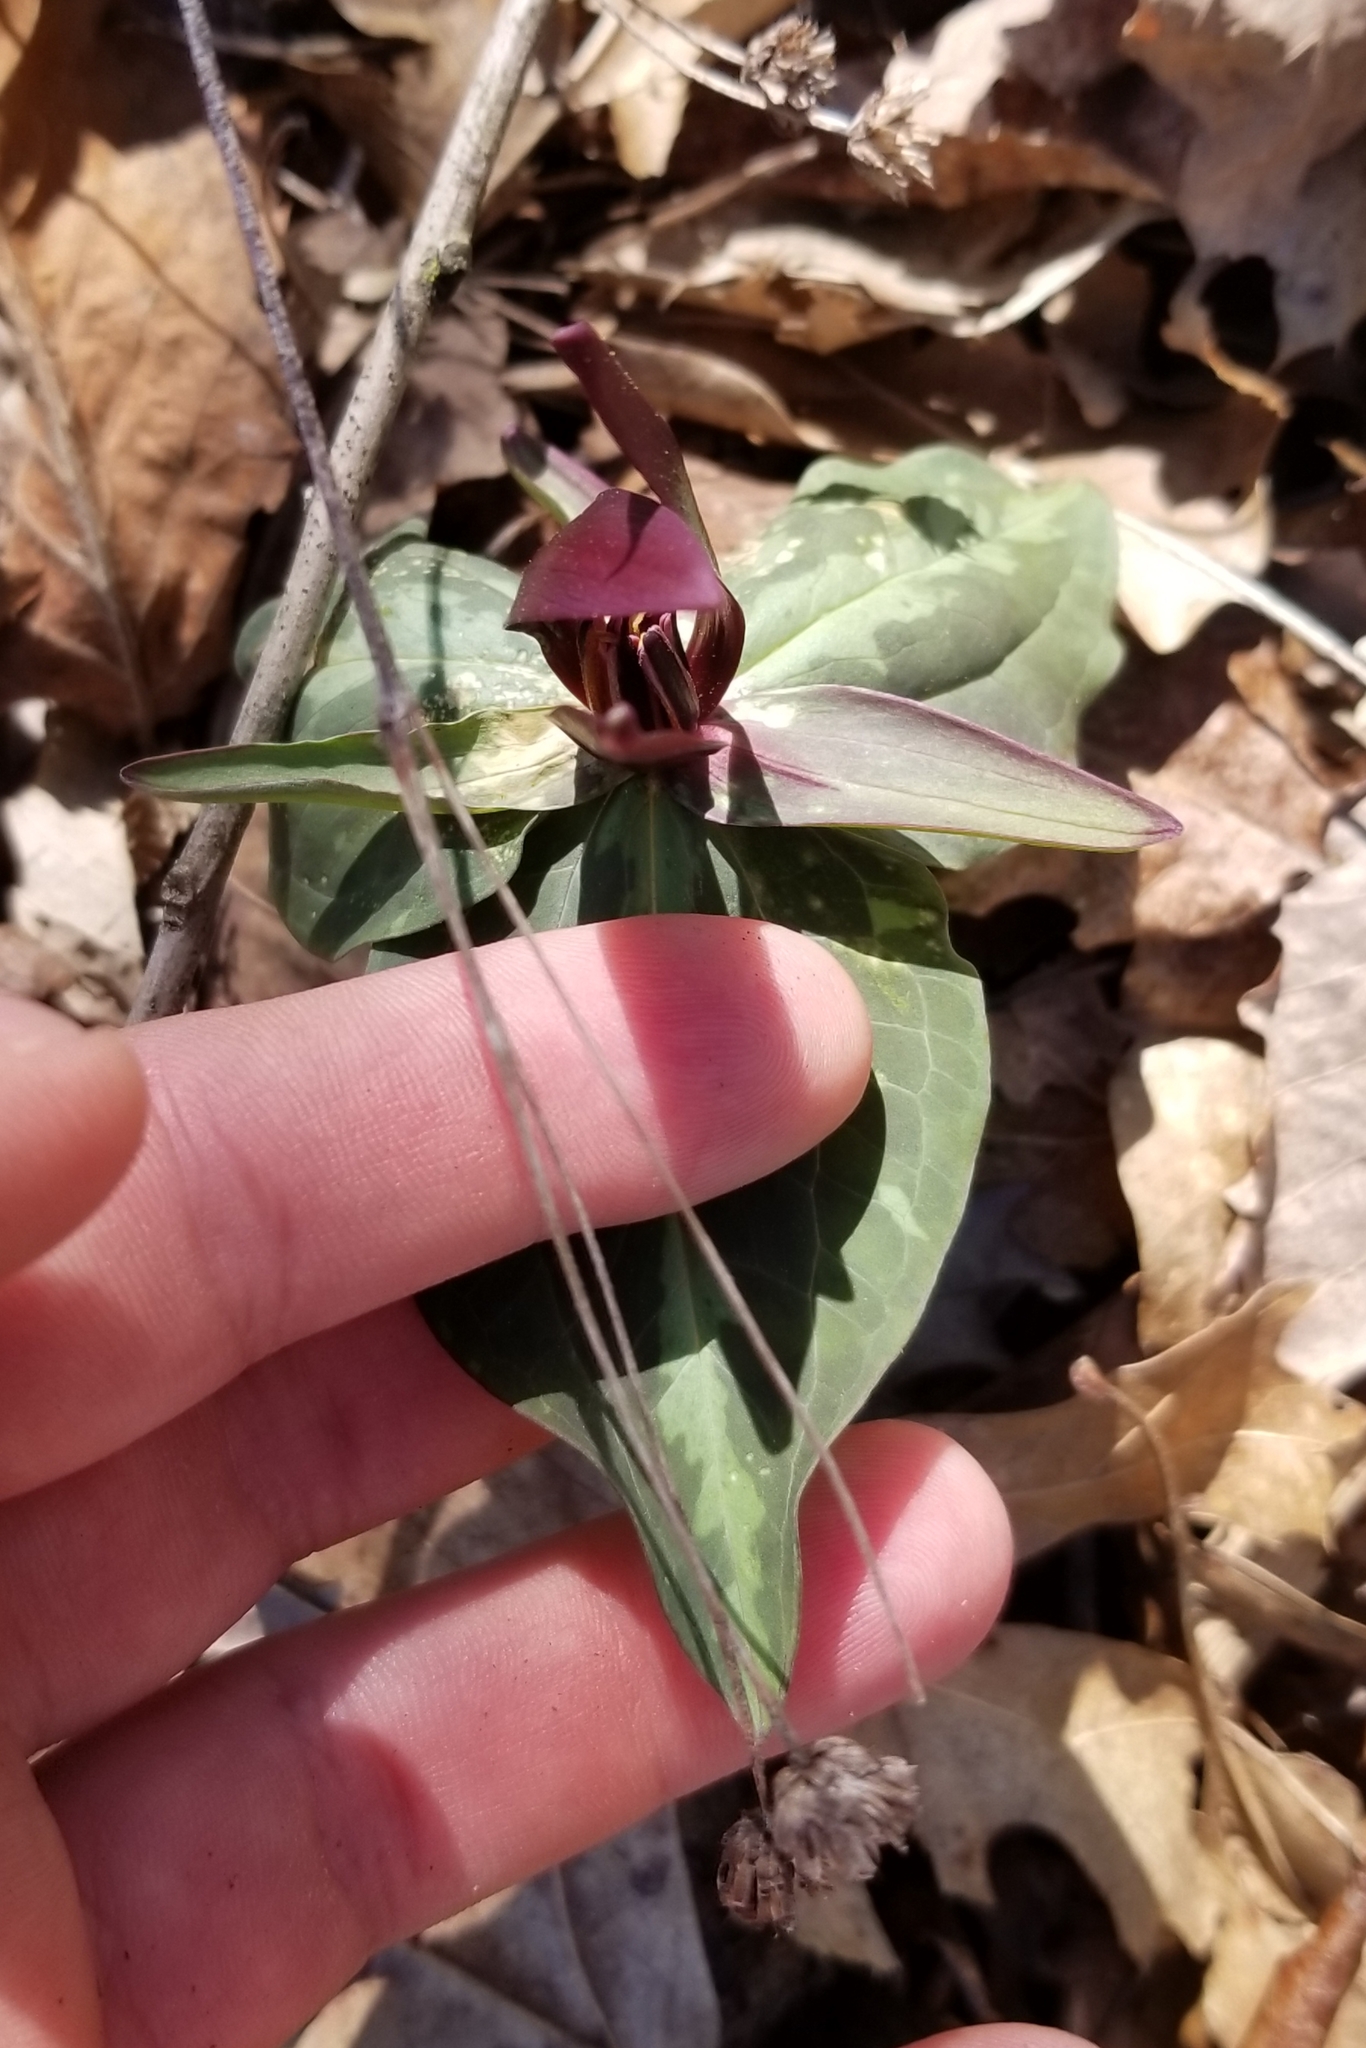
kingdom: Plantae
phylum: Tracheophyta
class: Liliopsida
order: Liliales
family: Melanthiaceae
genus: Trillium
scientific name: Trillium cuneatum
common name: Cuneate trillium
